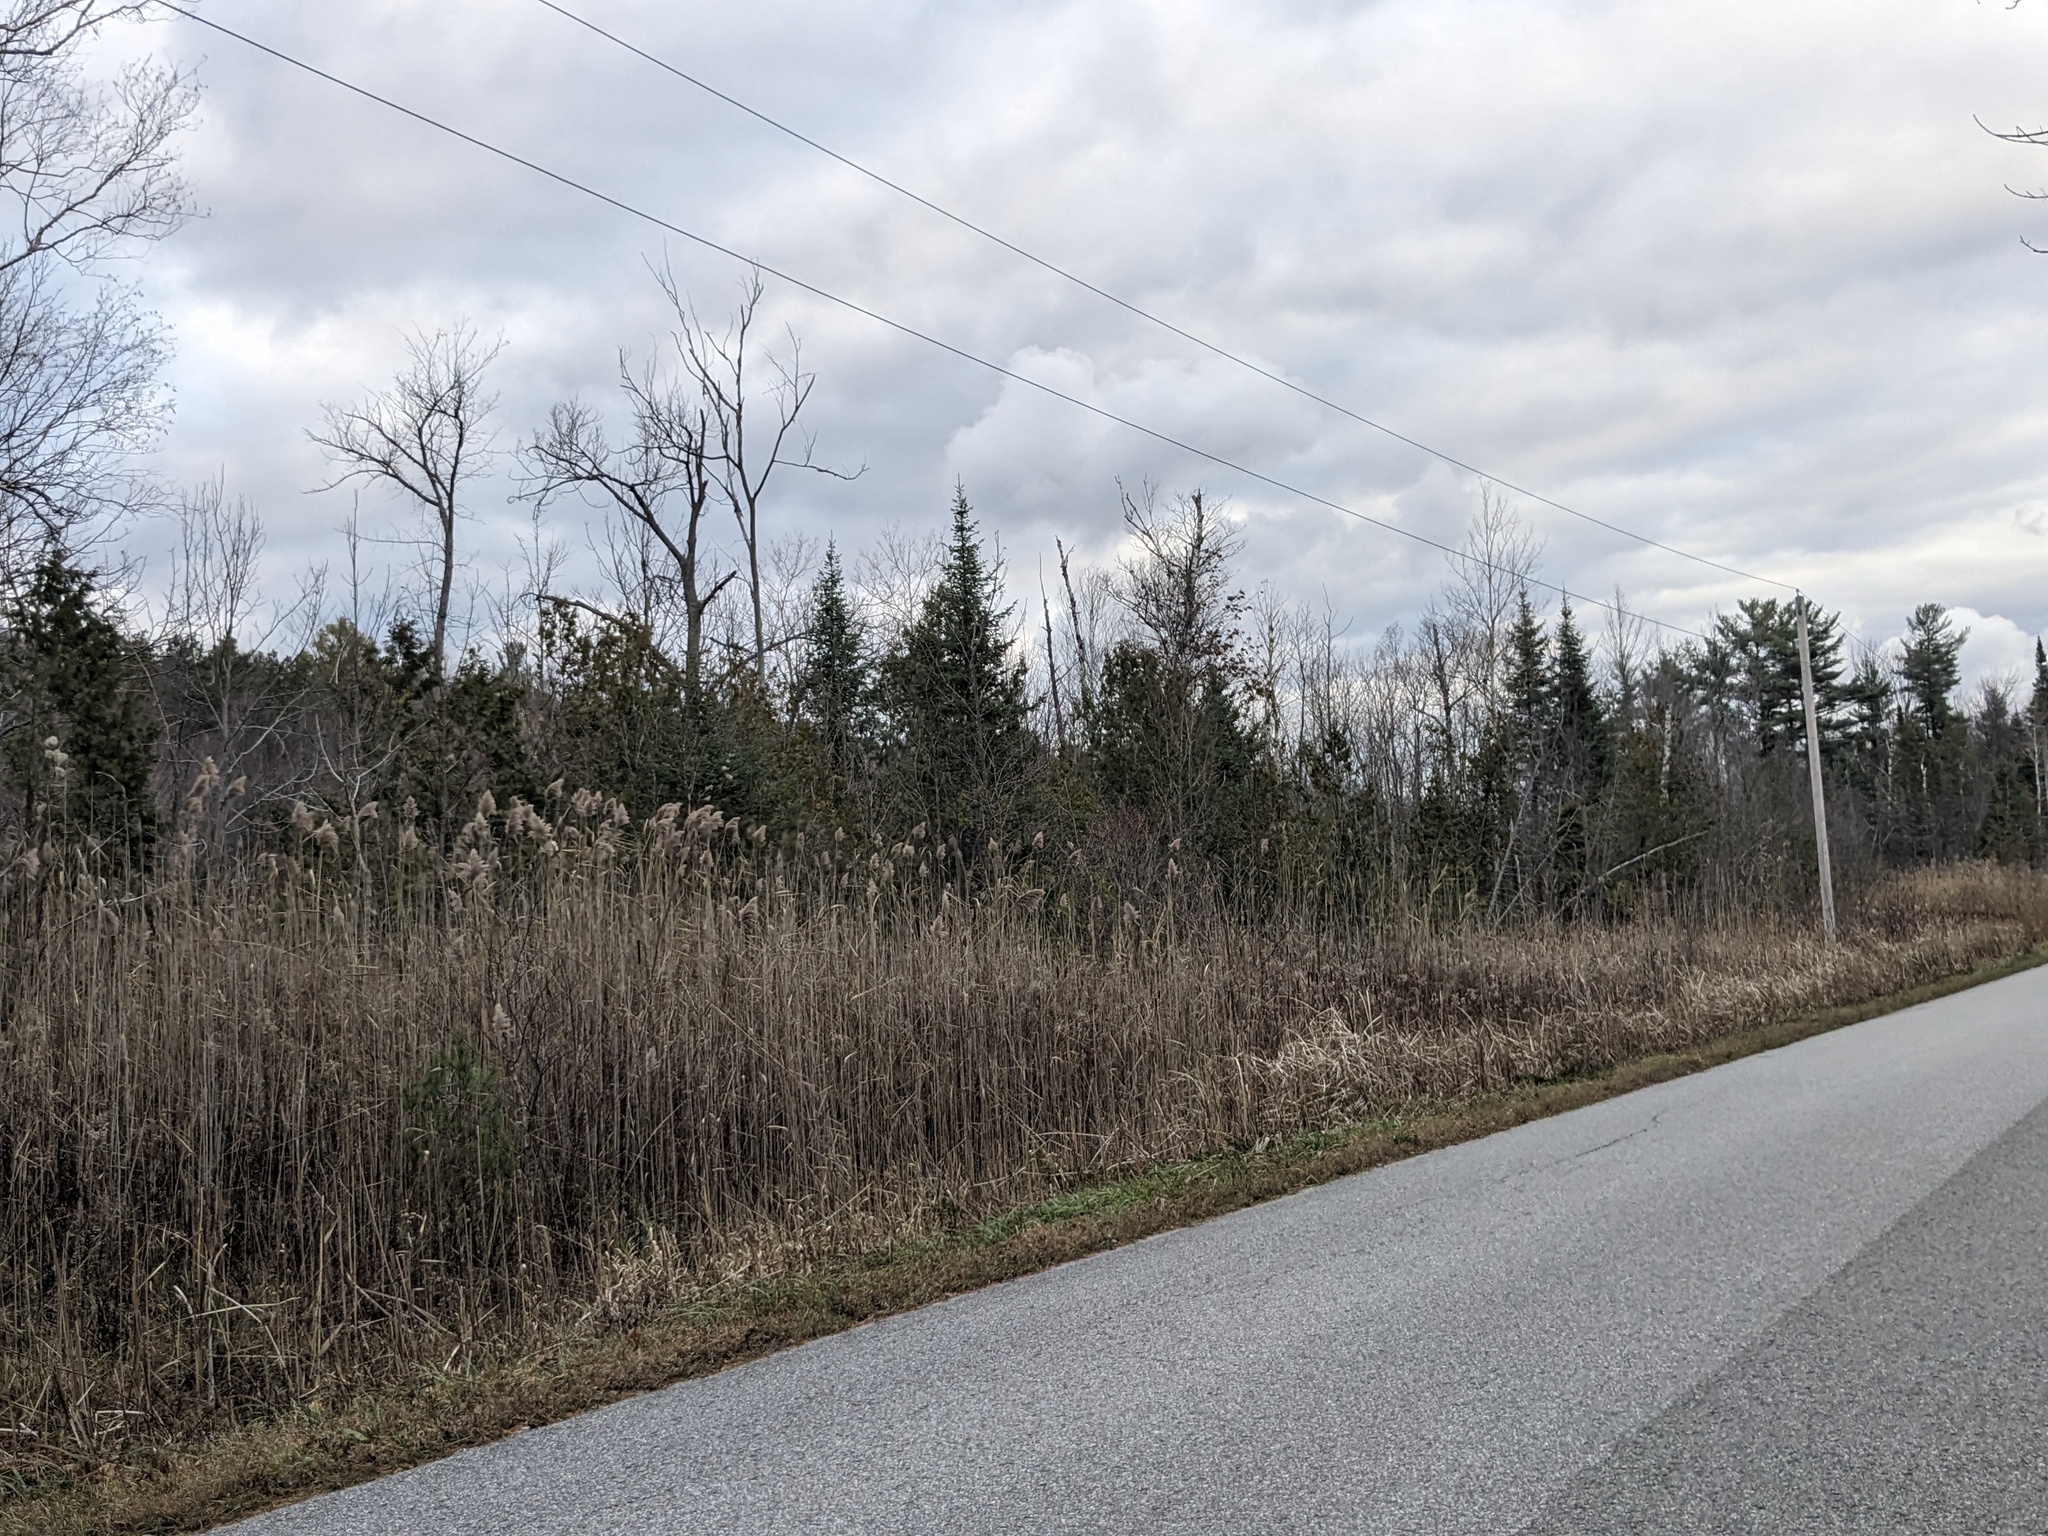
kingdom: Plantae
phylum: Tracheophyta
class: Liliopsida
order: Poales
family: Poaceae
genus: Phragmites
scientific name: Phragmites australis
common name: Common reed
